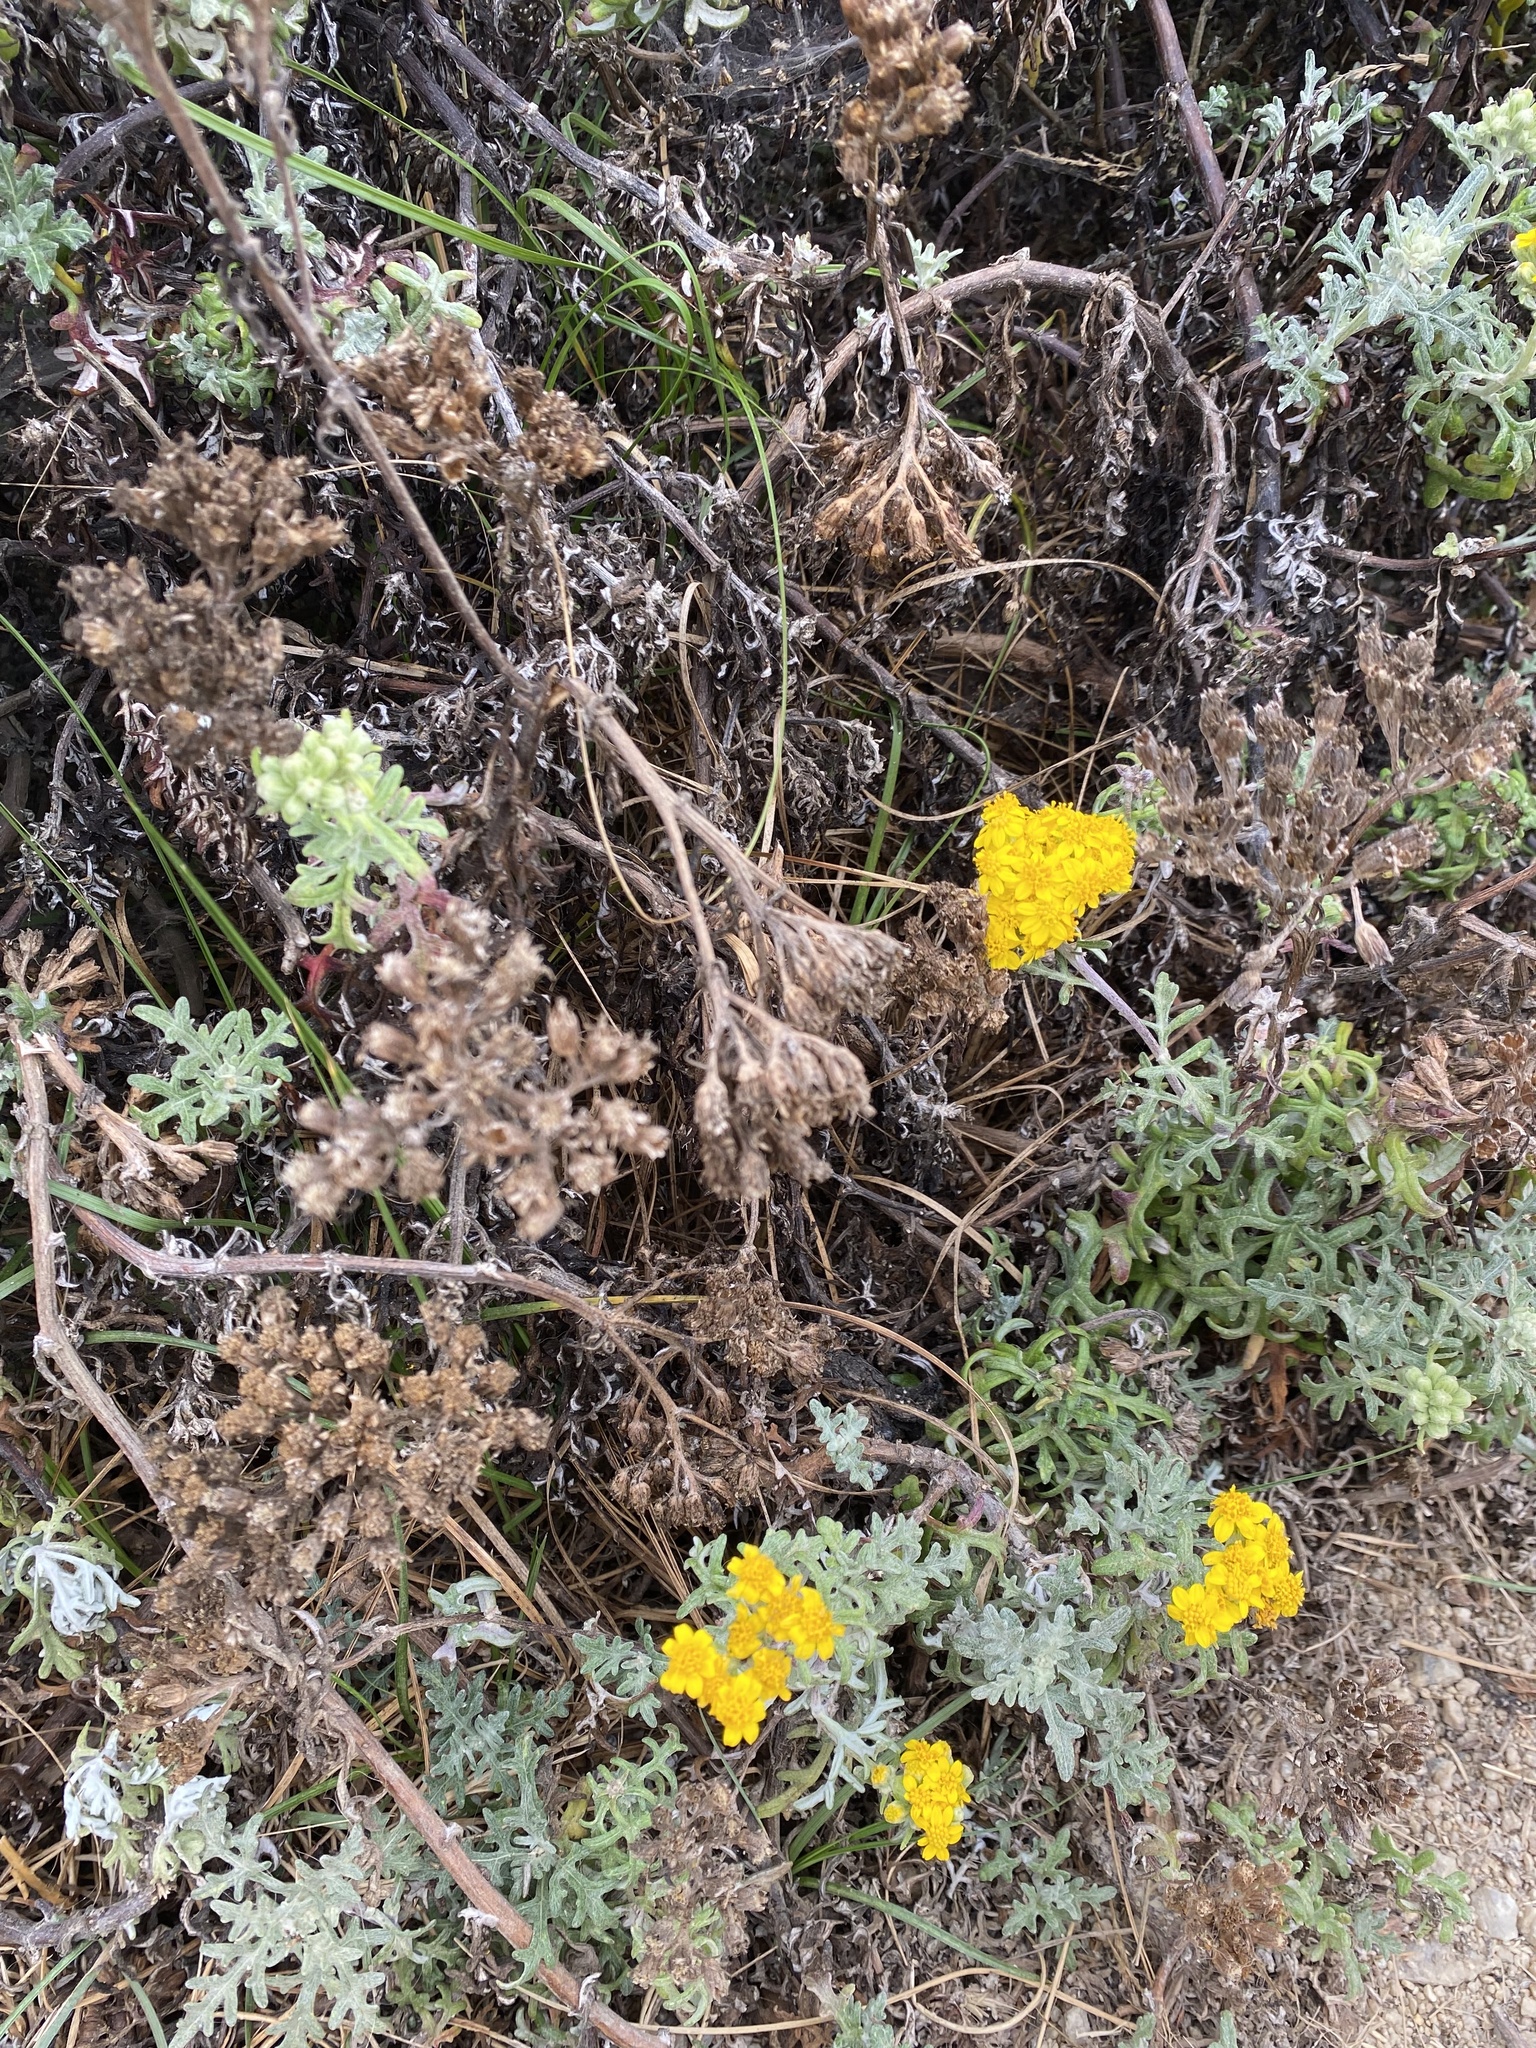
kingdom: Plantae
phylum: Tracheophyta
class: Magnoliopsida
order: Asterales
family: Asteraceae
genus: Eriophyllum
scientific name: Eriophyllum staechadifolium
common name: Lizardtail
